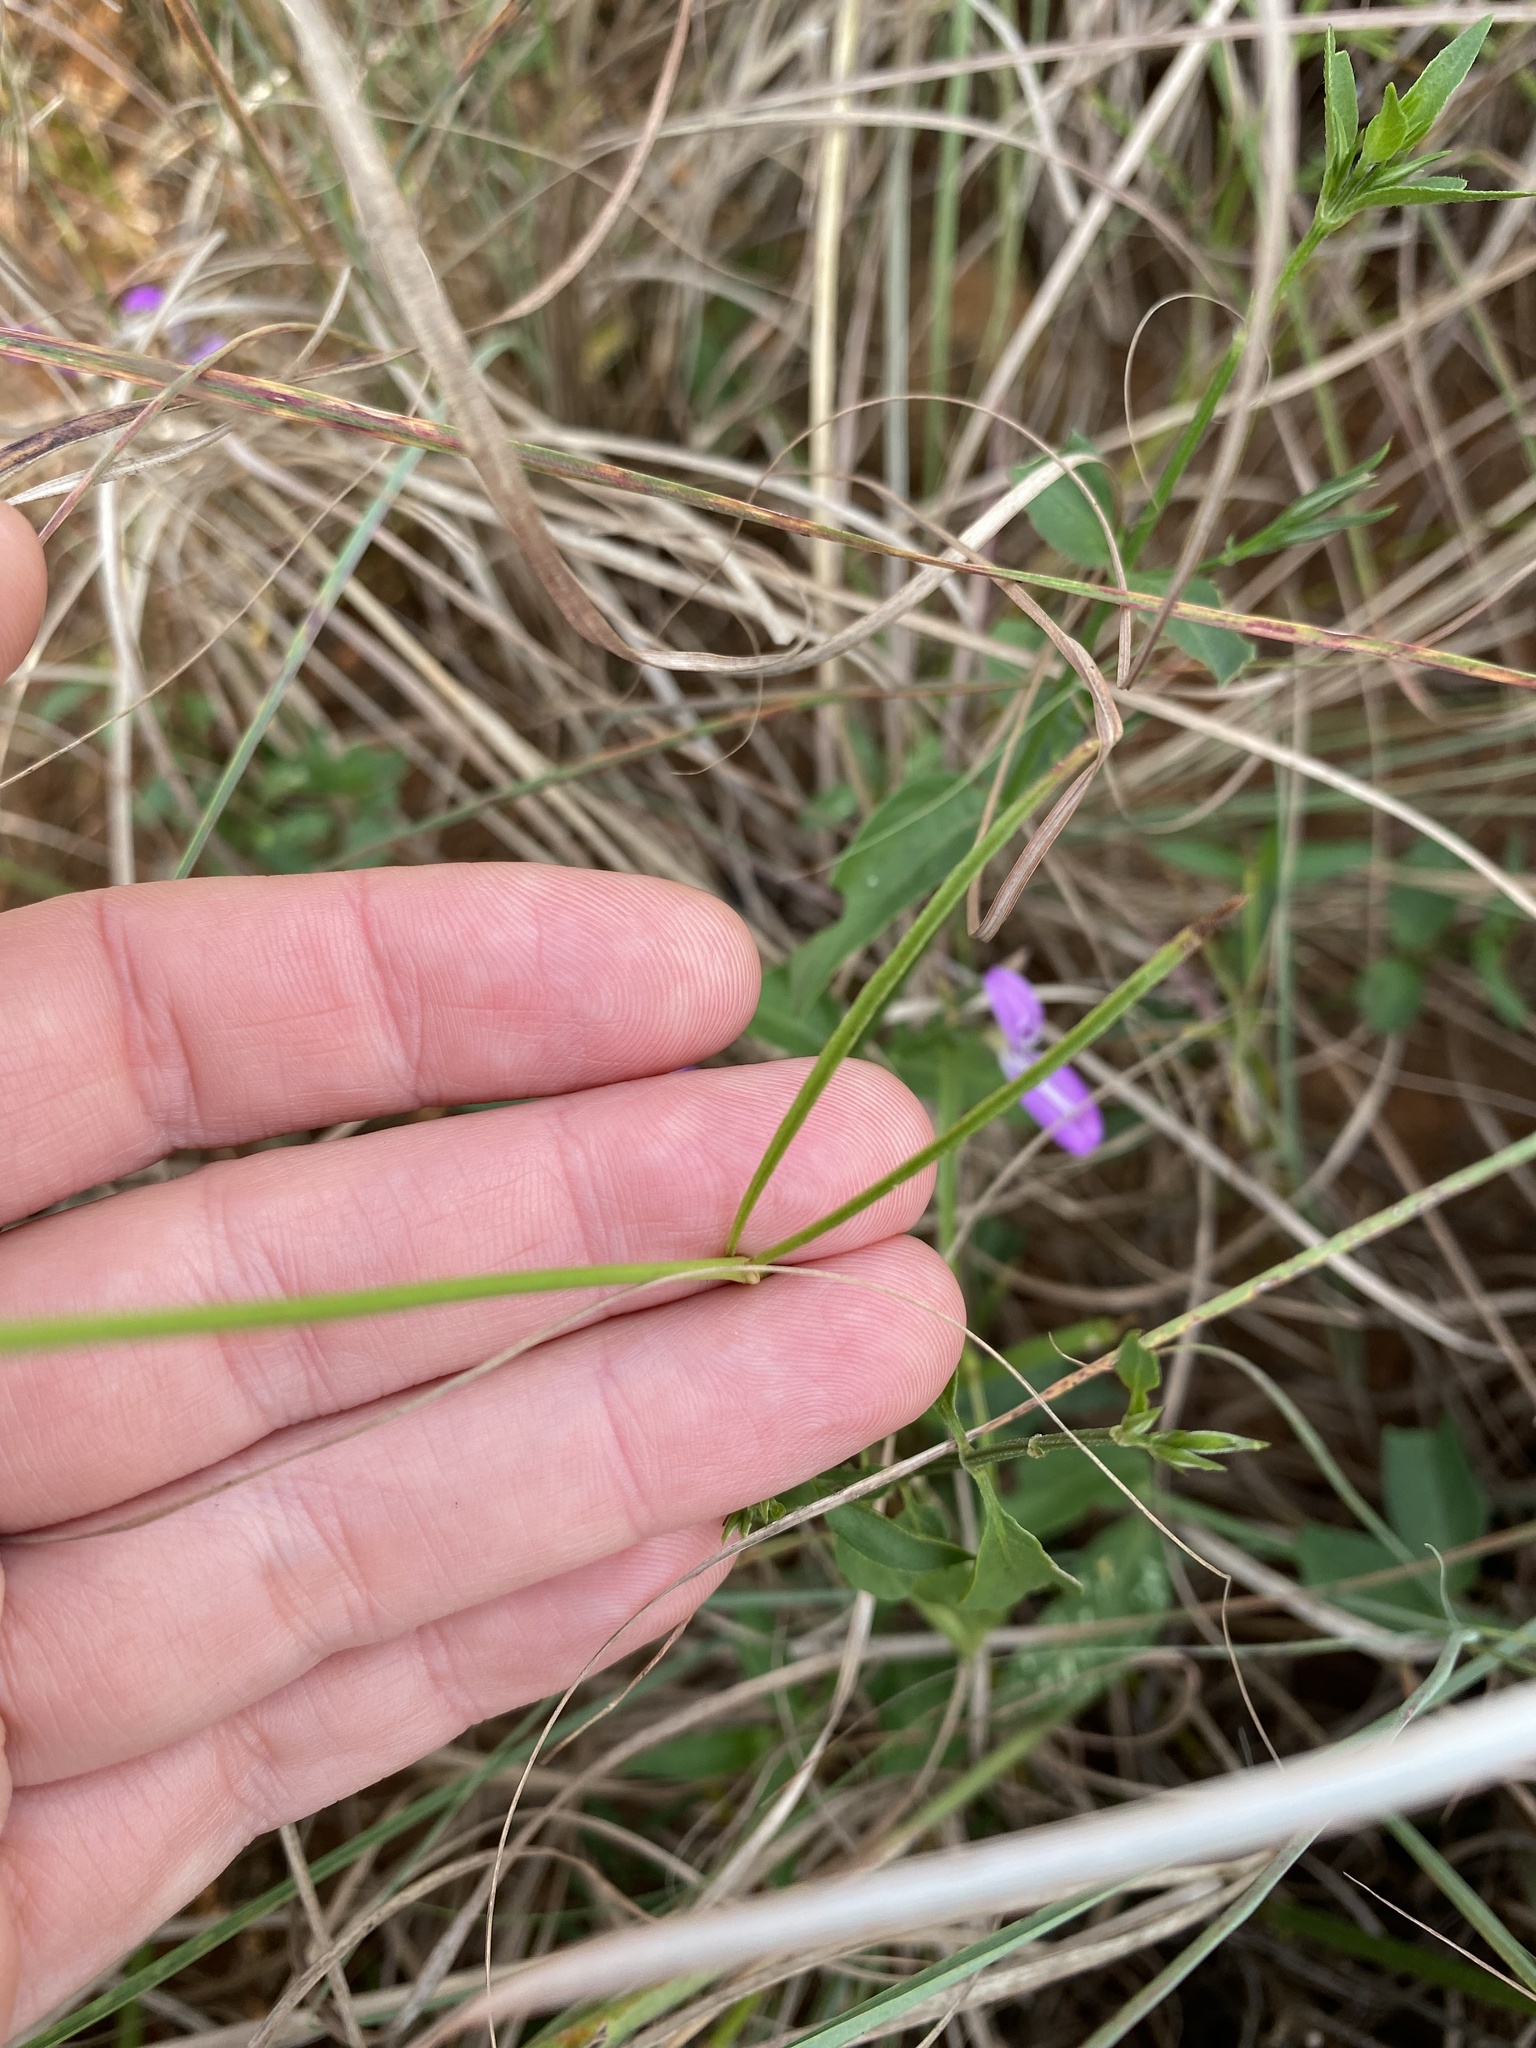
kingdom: Plantae
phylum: Tracheophyta
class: Magnoliopsida
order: Caryophyllales
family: Amaranthaceae
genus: Cyphocarpa
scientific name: Cyphocarpa angustifolia
